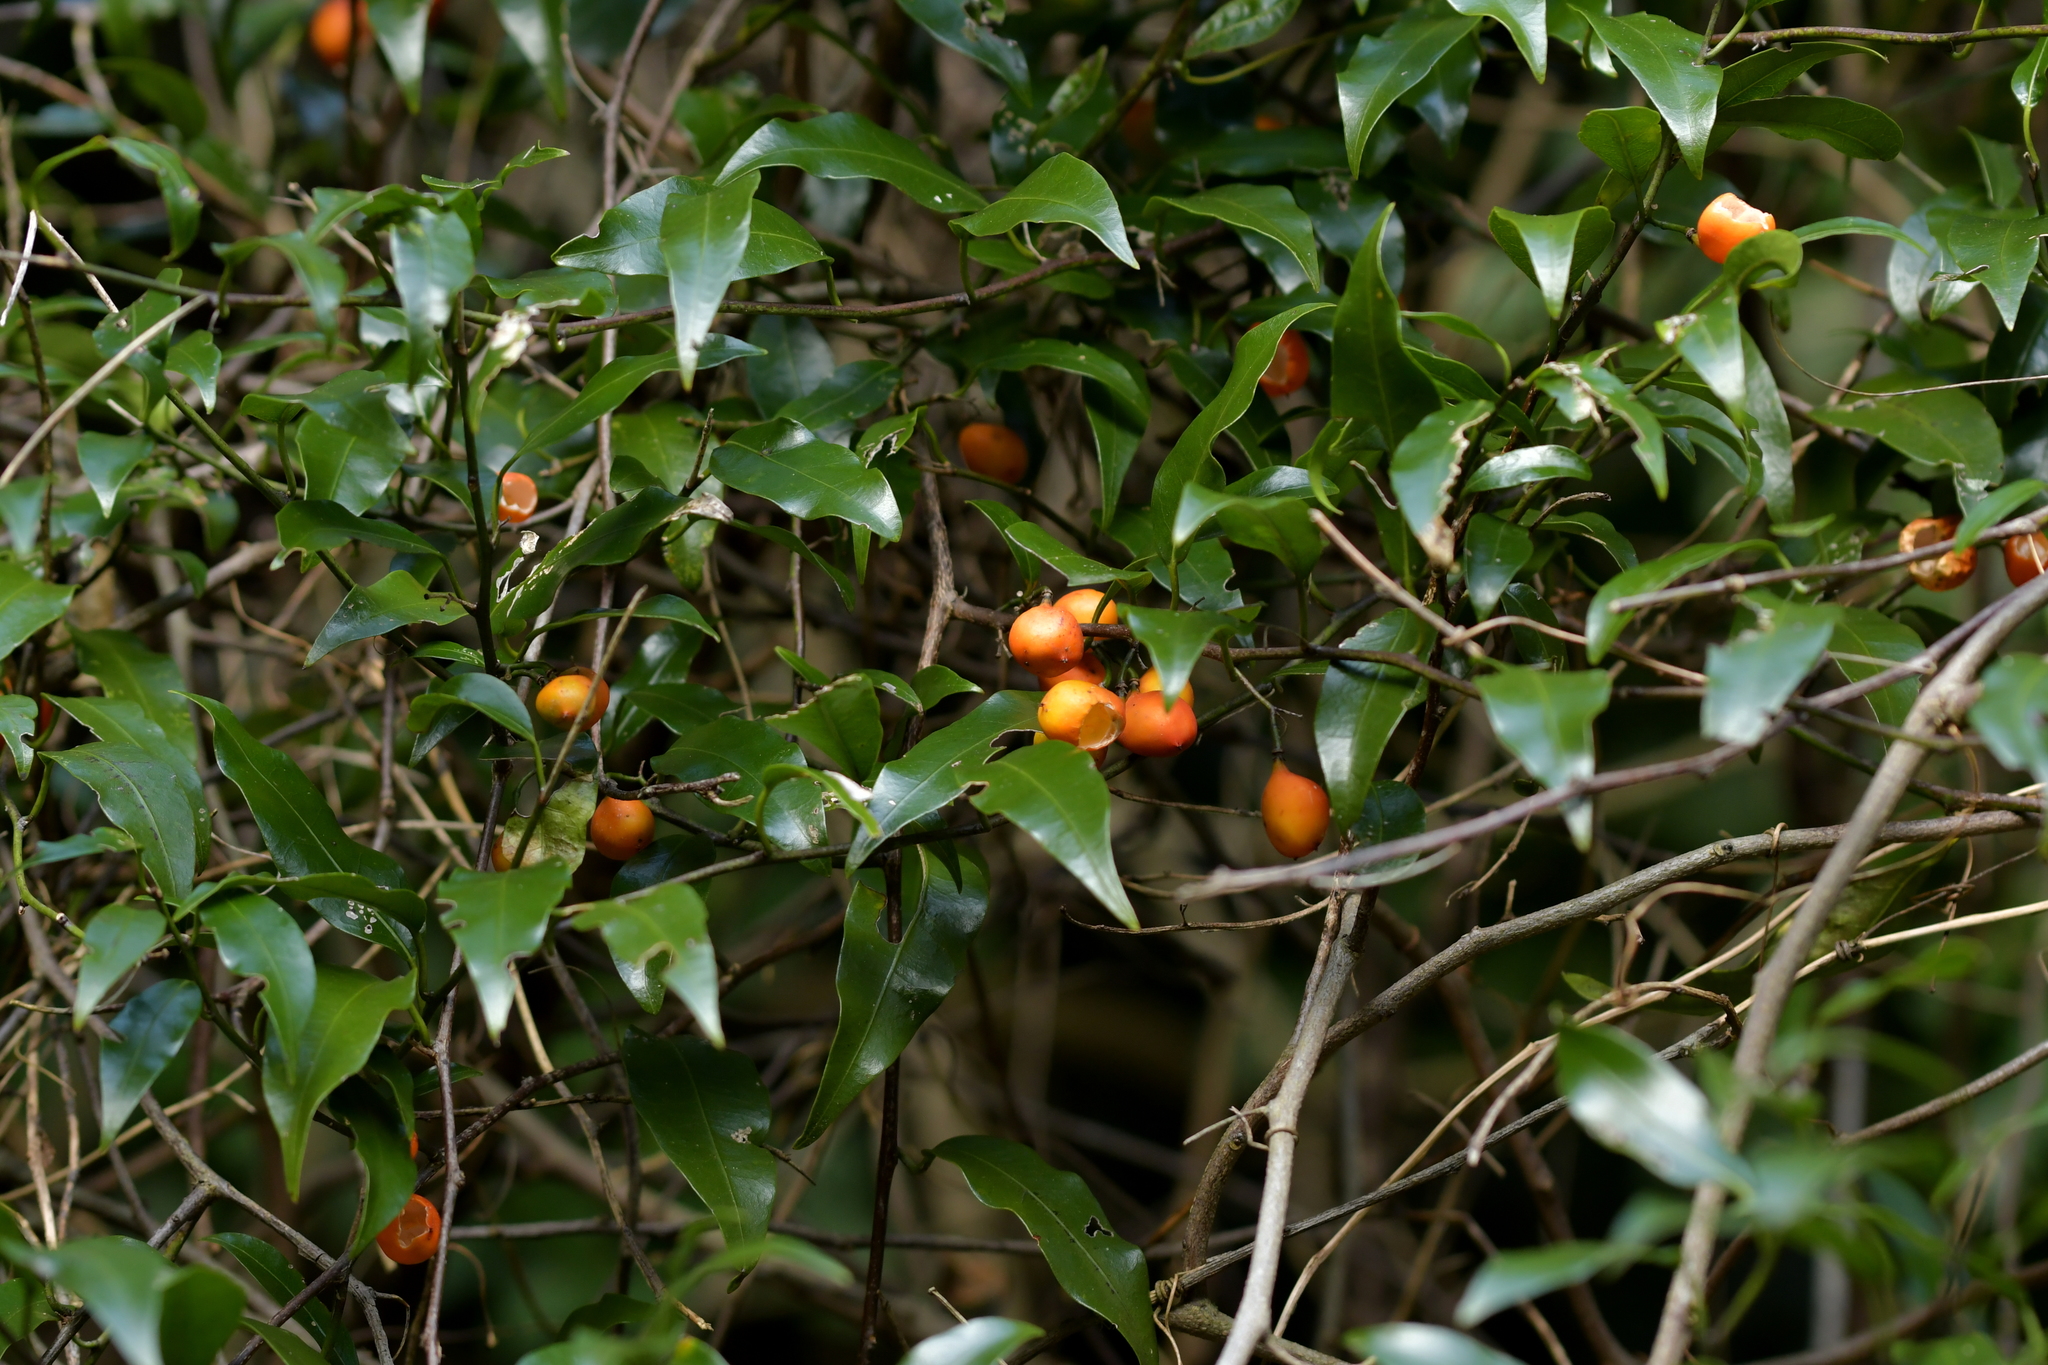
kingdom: Plantae
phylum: Tracheophyta
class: Magnoliopsida
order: Malpighiales
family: Passifloraceae
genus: Passiflora
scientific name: Passiflora tetrandra
